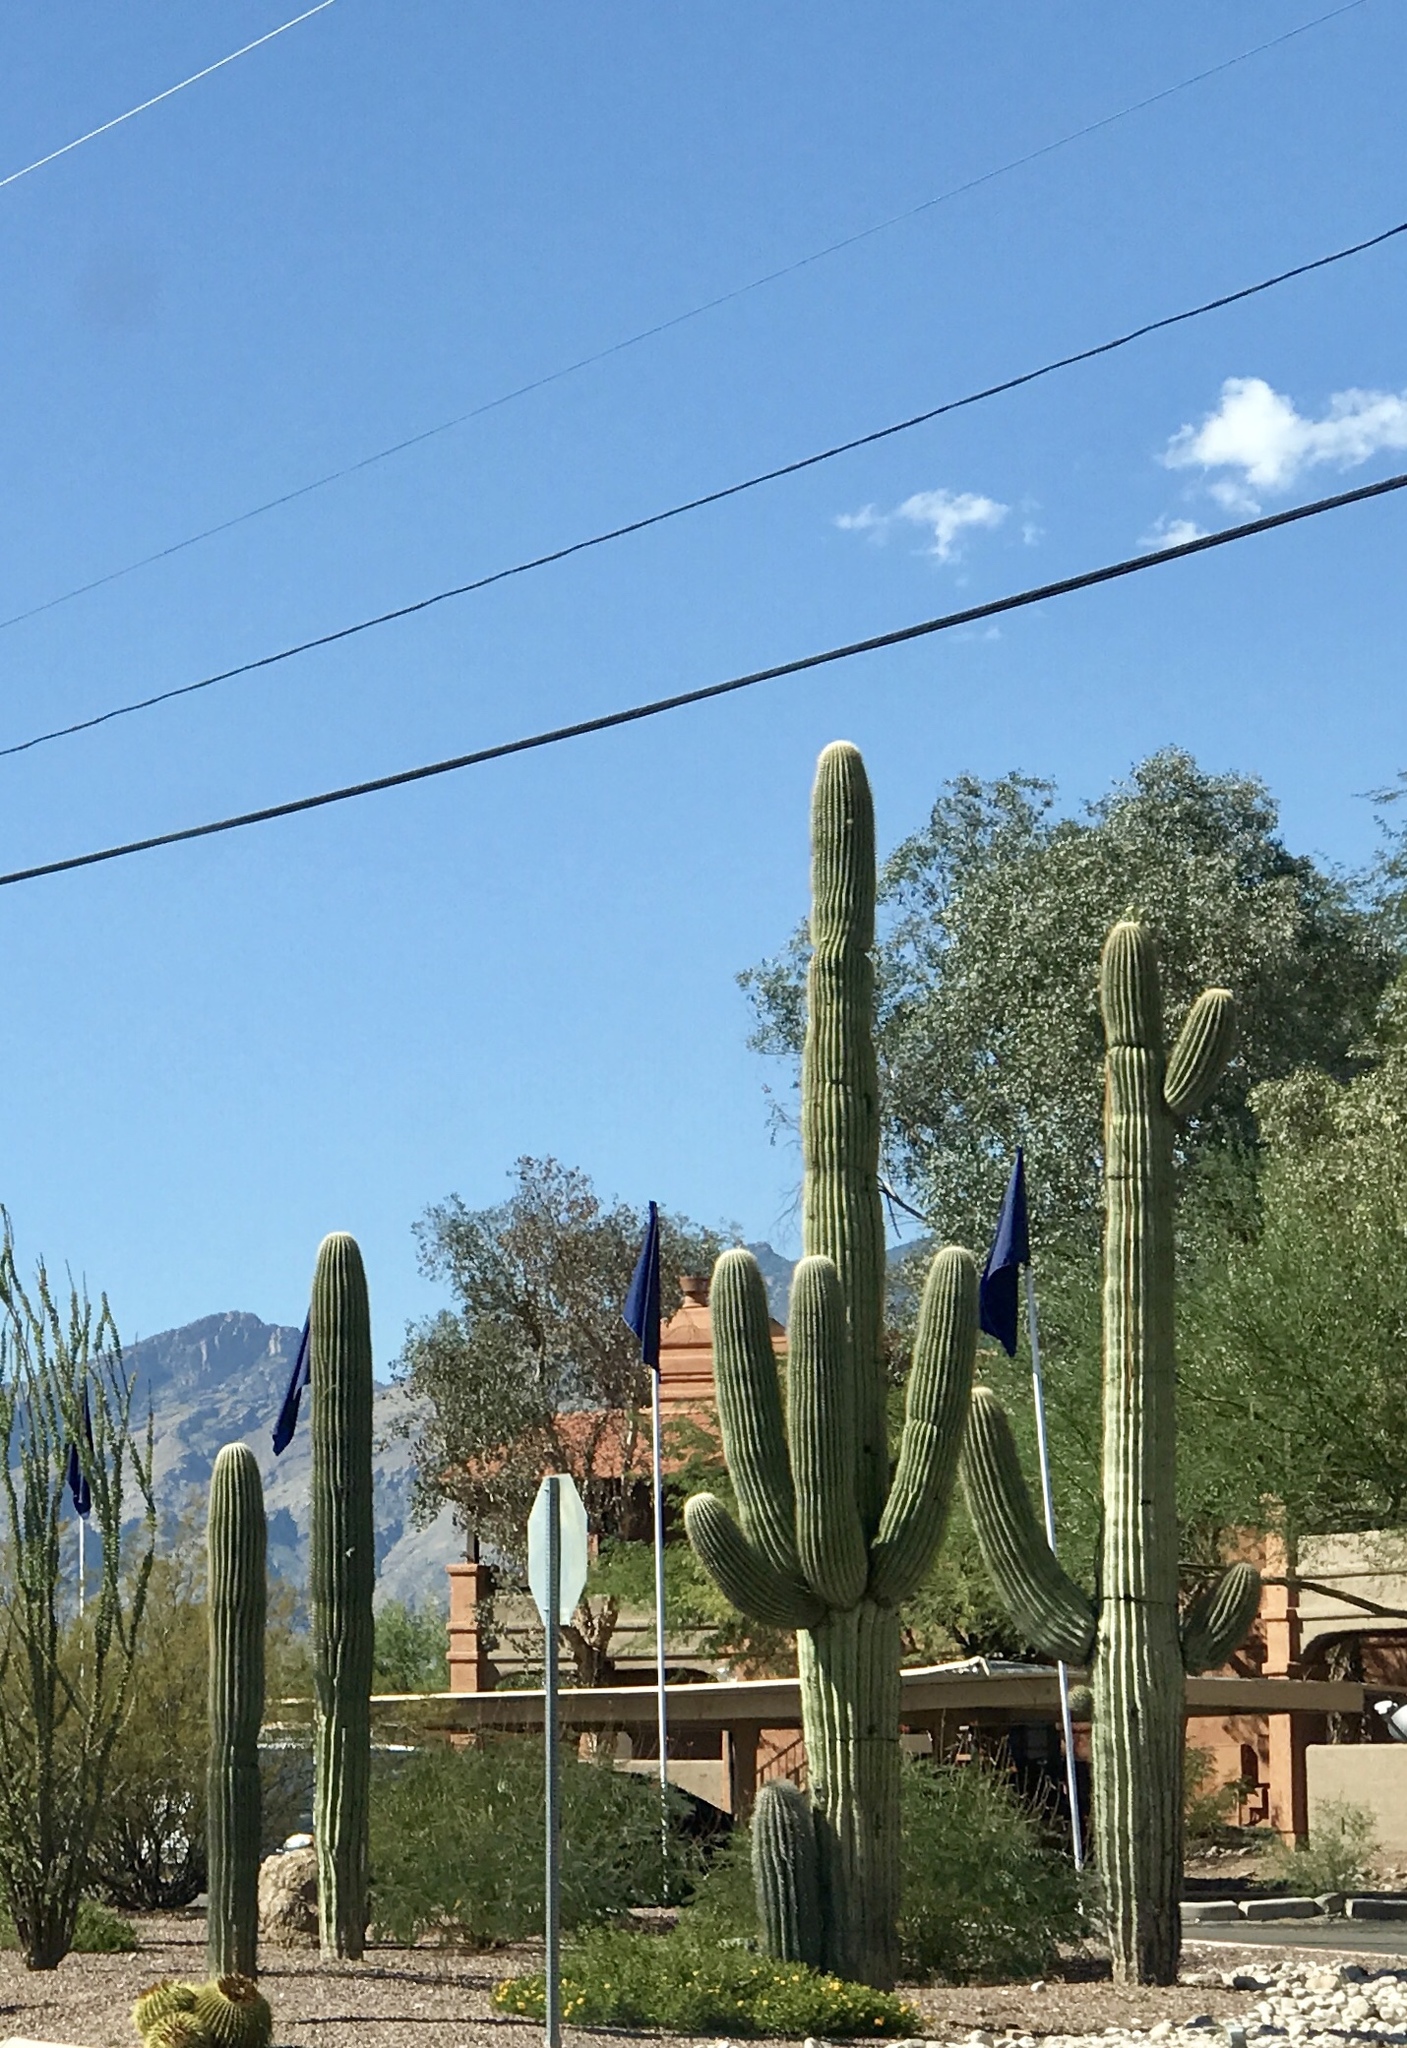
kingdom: Plantae
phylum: Tracheophyta
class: Magnoliopsida
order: Caryophyllales
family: Cactaceae
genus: Carnegiea
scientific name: Carnegiea gigantea
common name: Saguaro
